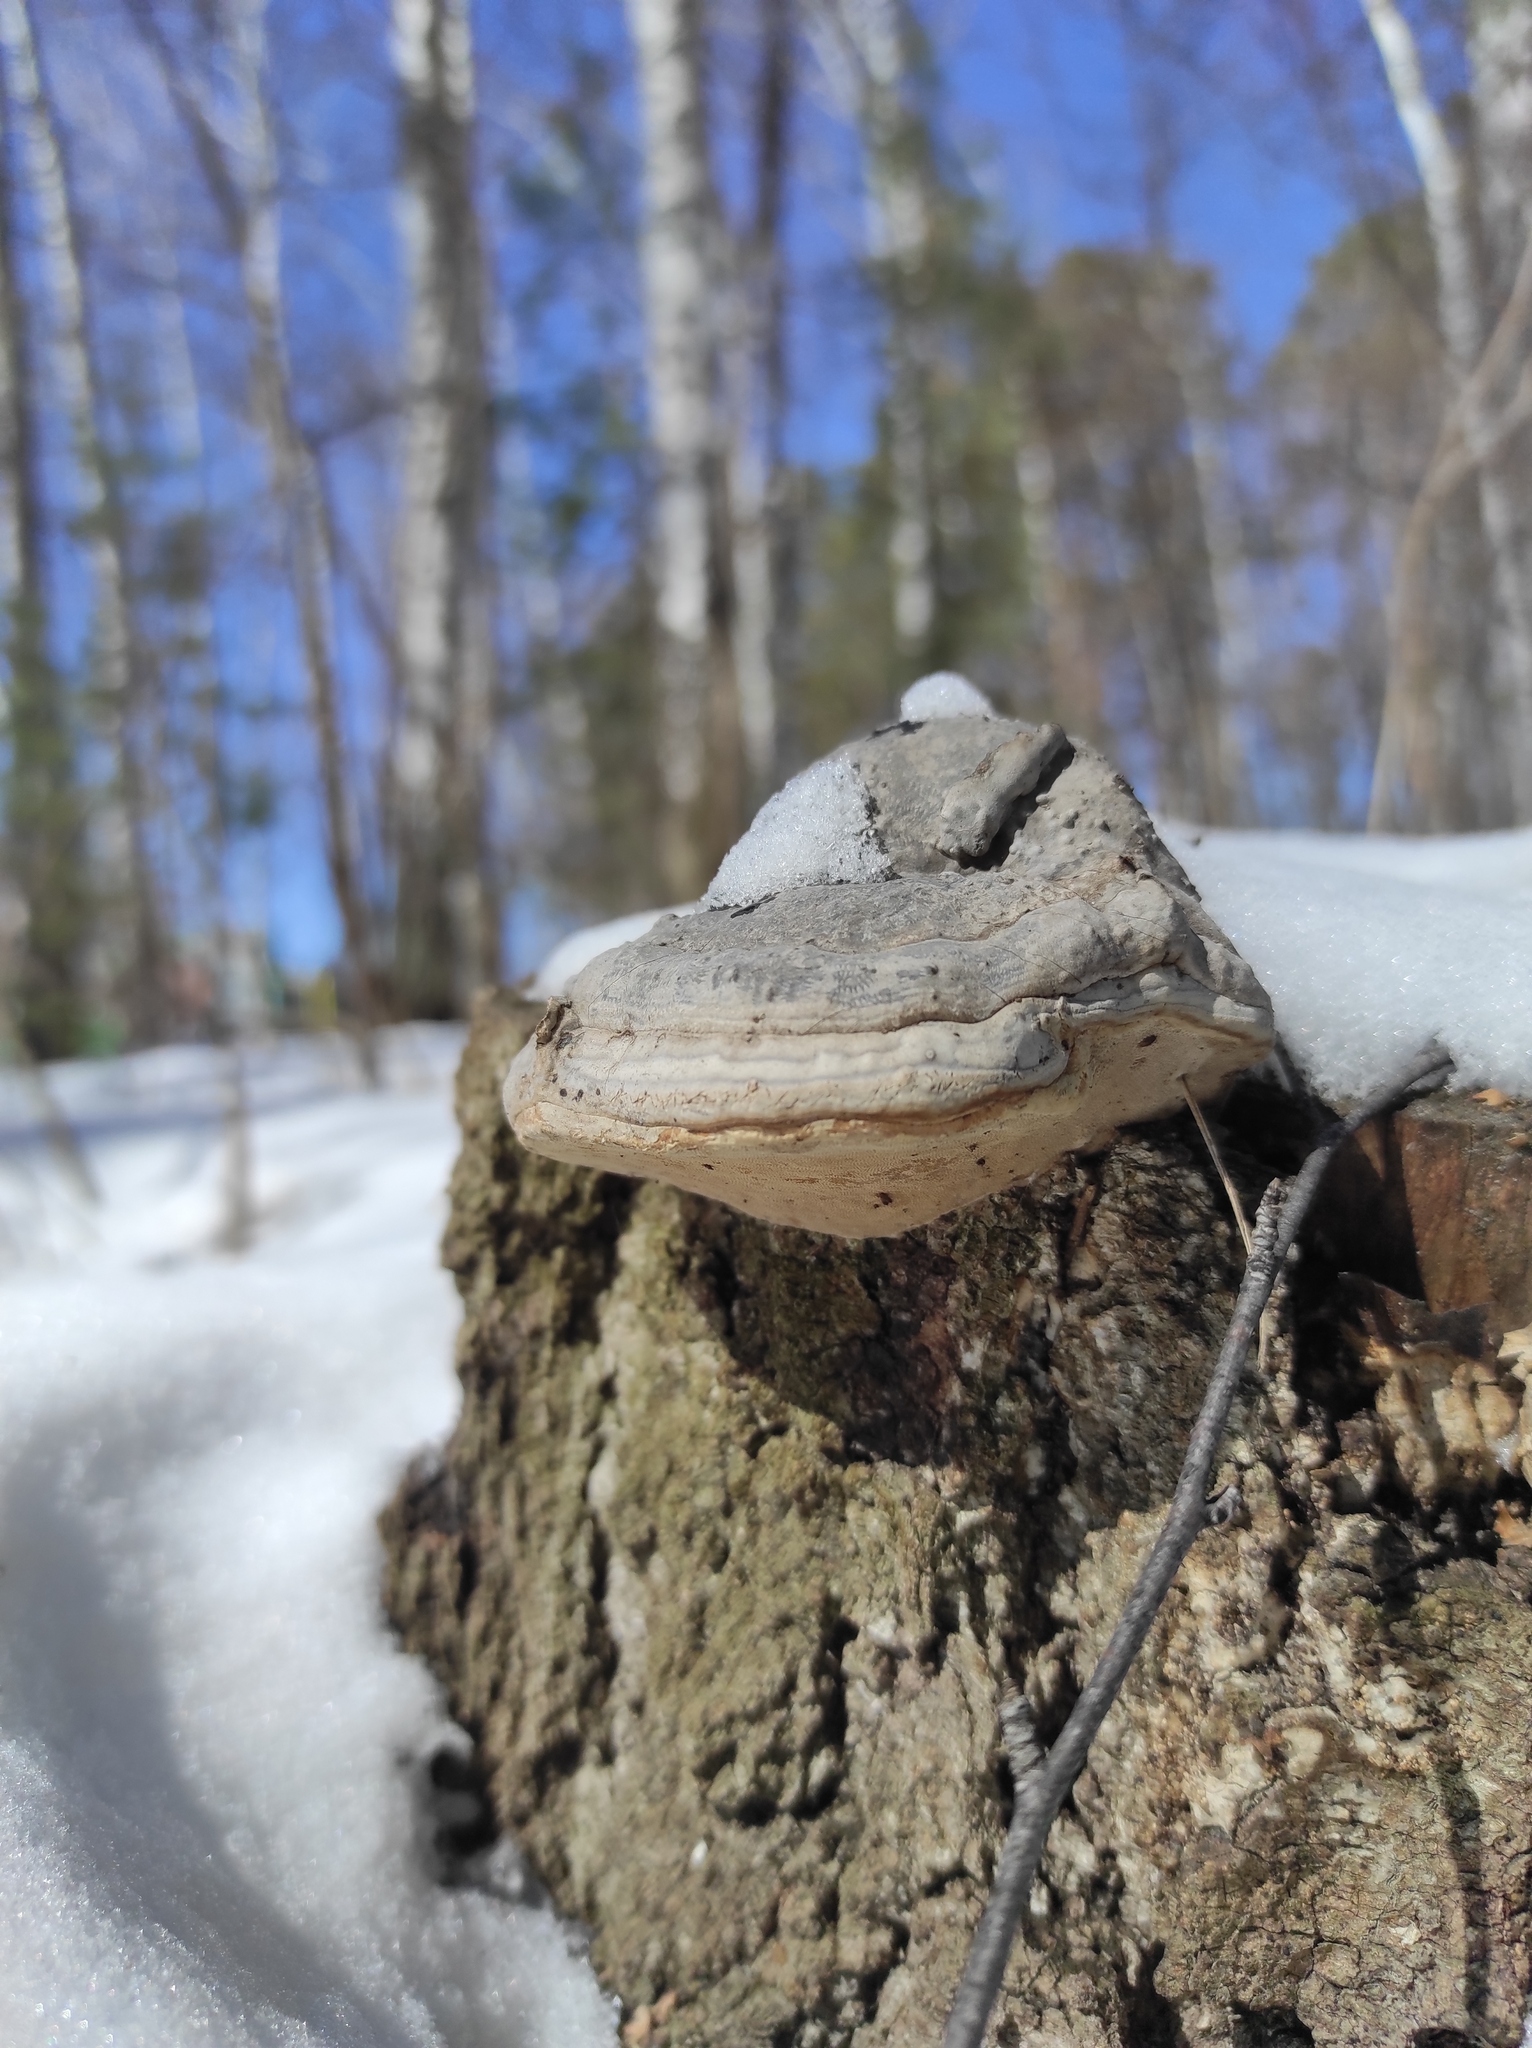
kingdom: Fungi
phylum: Basidiomycota
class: Agaricomycetes
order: Polyporales
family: Polyporaceae
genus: Fomes
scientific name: Fomes fomentarius
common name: Hoof fungus
